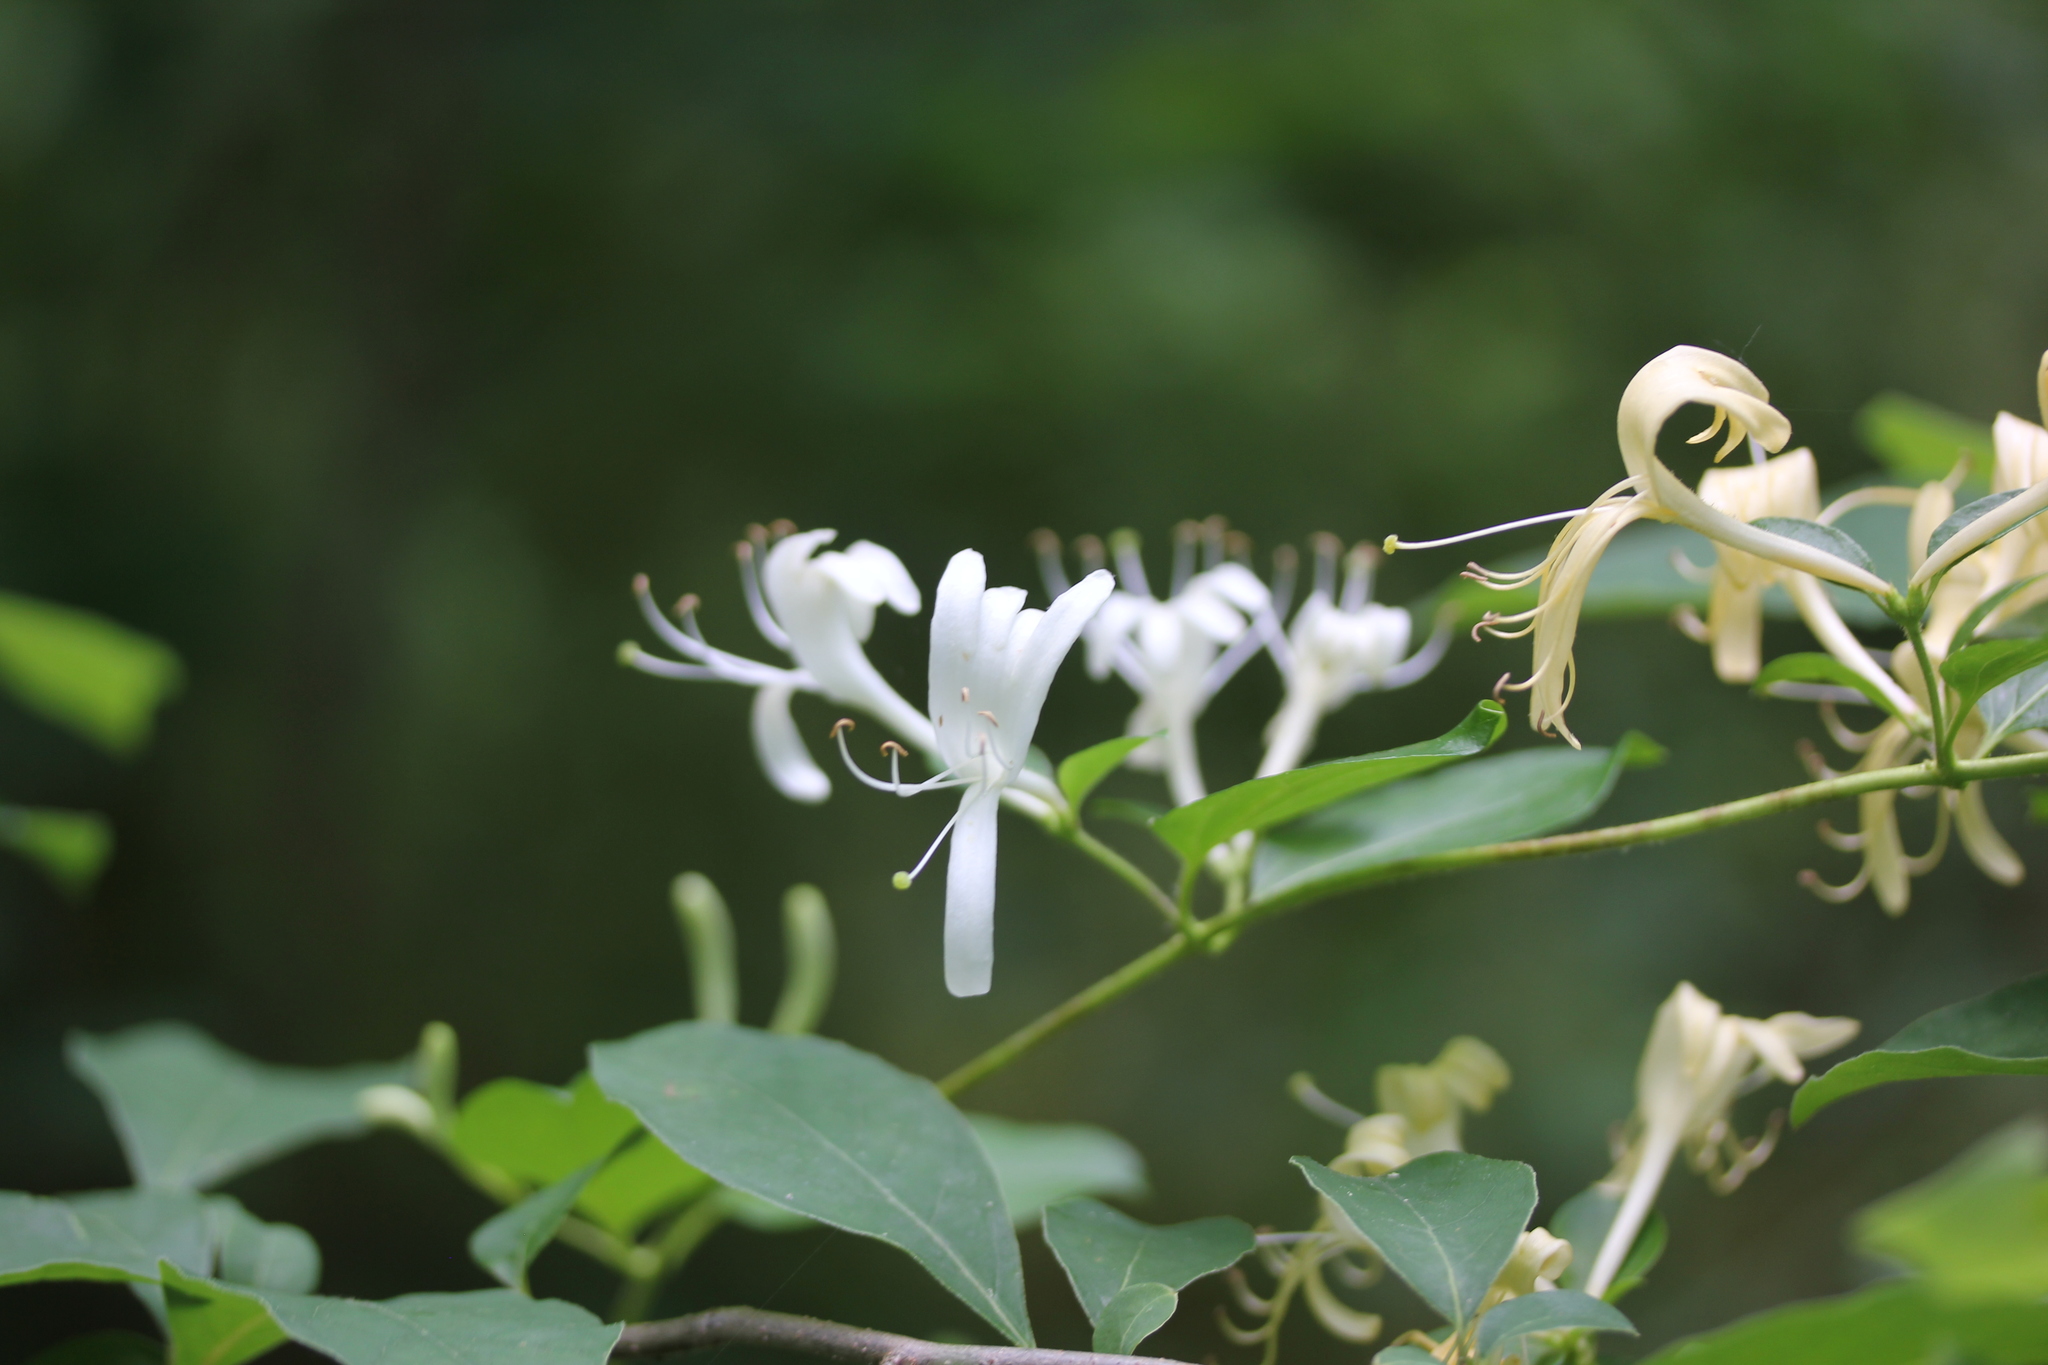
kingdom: Plantae
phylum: Tracheophyta
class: Magnoliopsida
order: Dipsacales
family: Caprifoliaceae
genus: Lonicera
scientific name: Lonicera japonica
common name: Japanese honeysuckle
